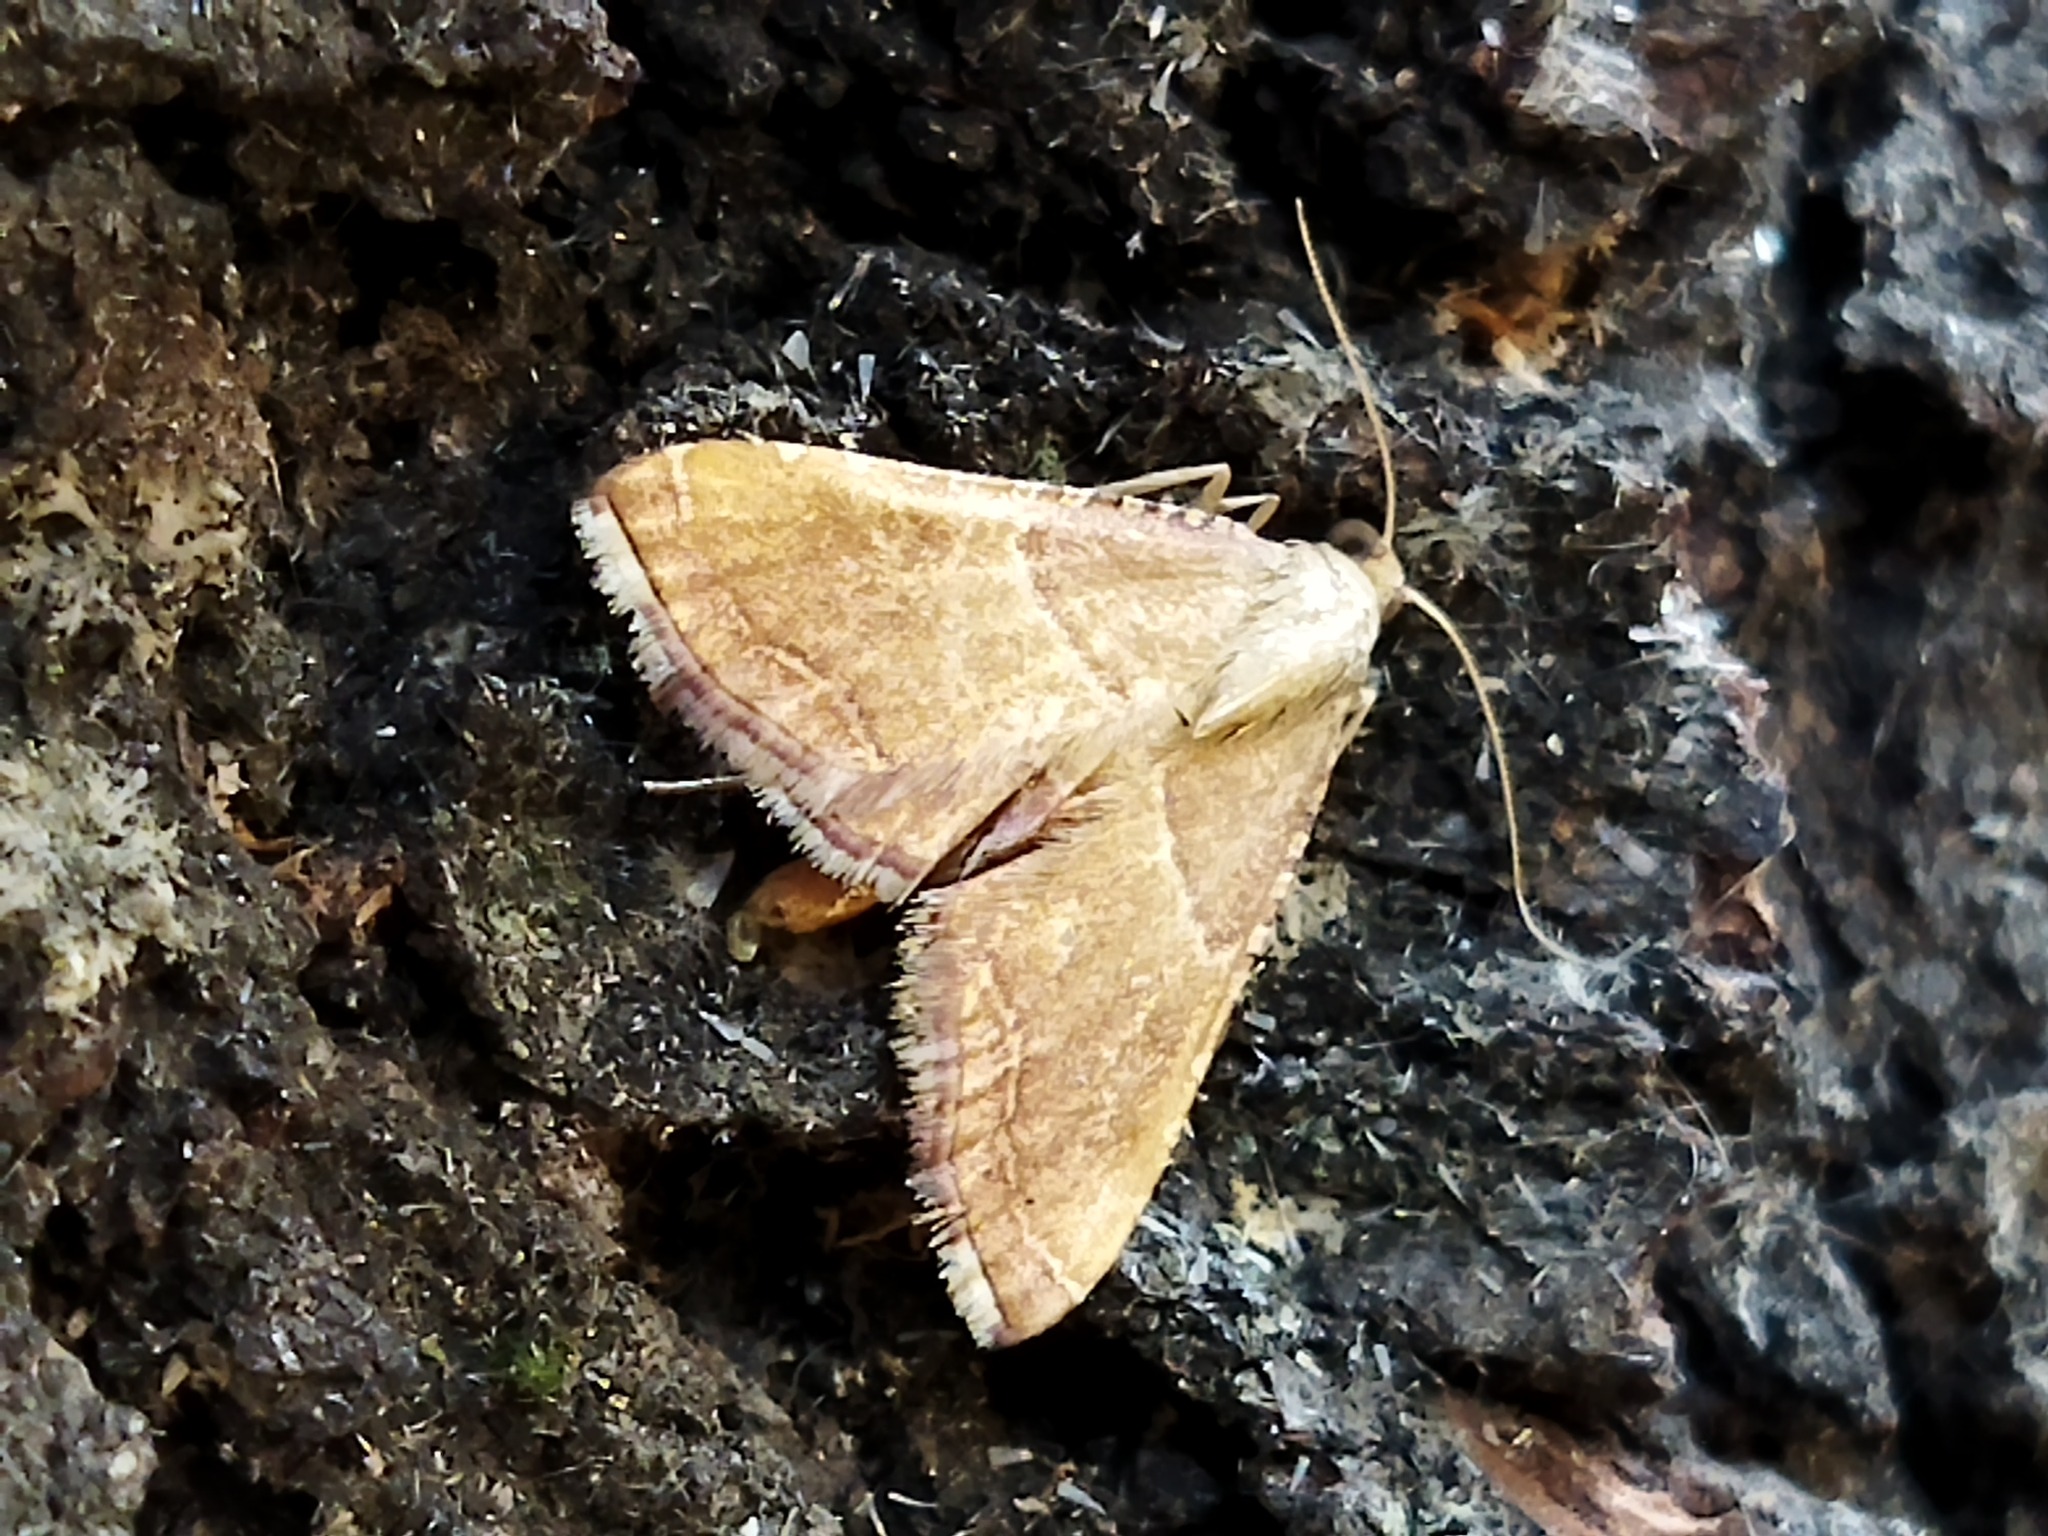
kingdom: Animalia
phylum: Arthropoda
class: Insecta
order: Lepidoptera
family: Pyralidae
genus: Endotricha
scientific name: Endotricha flammealis
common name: Rosy tabby
